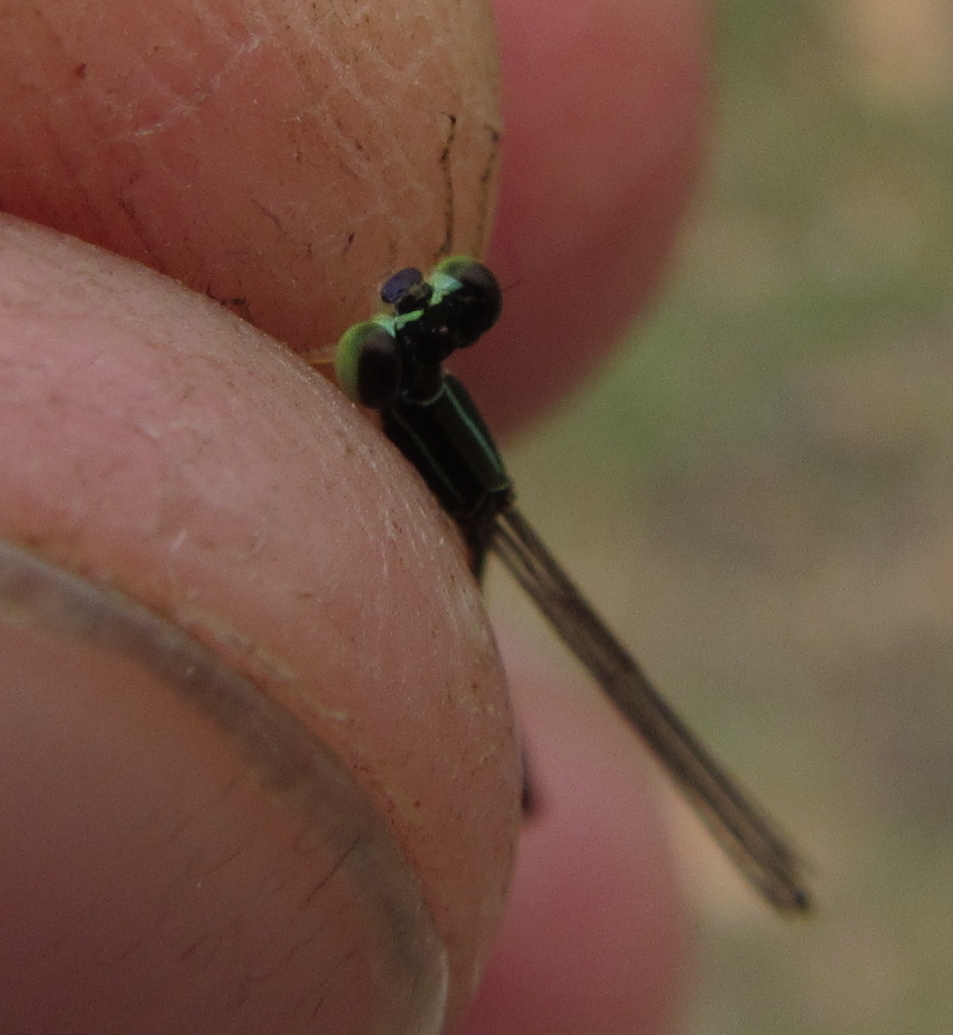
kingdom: Animalia
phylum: Arthropoda
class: Insecta
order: Odonata
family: Coenagrionidae
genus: Agriocnemis
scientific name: Agriocnemis exilis
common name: Little wisp
